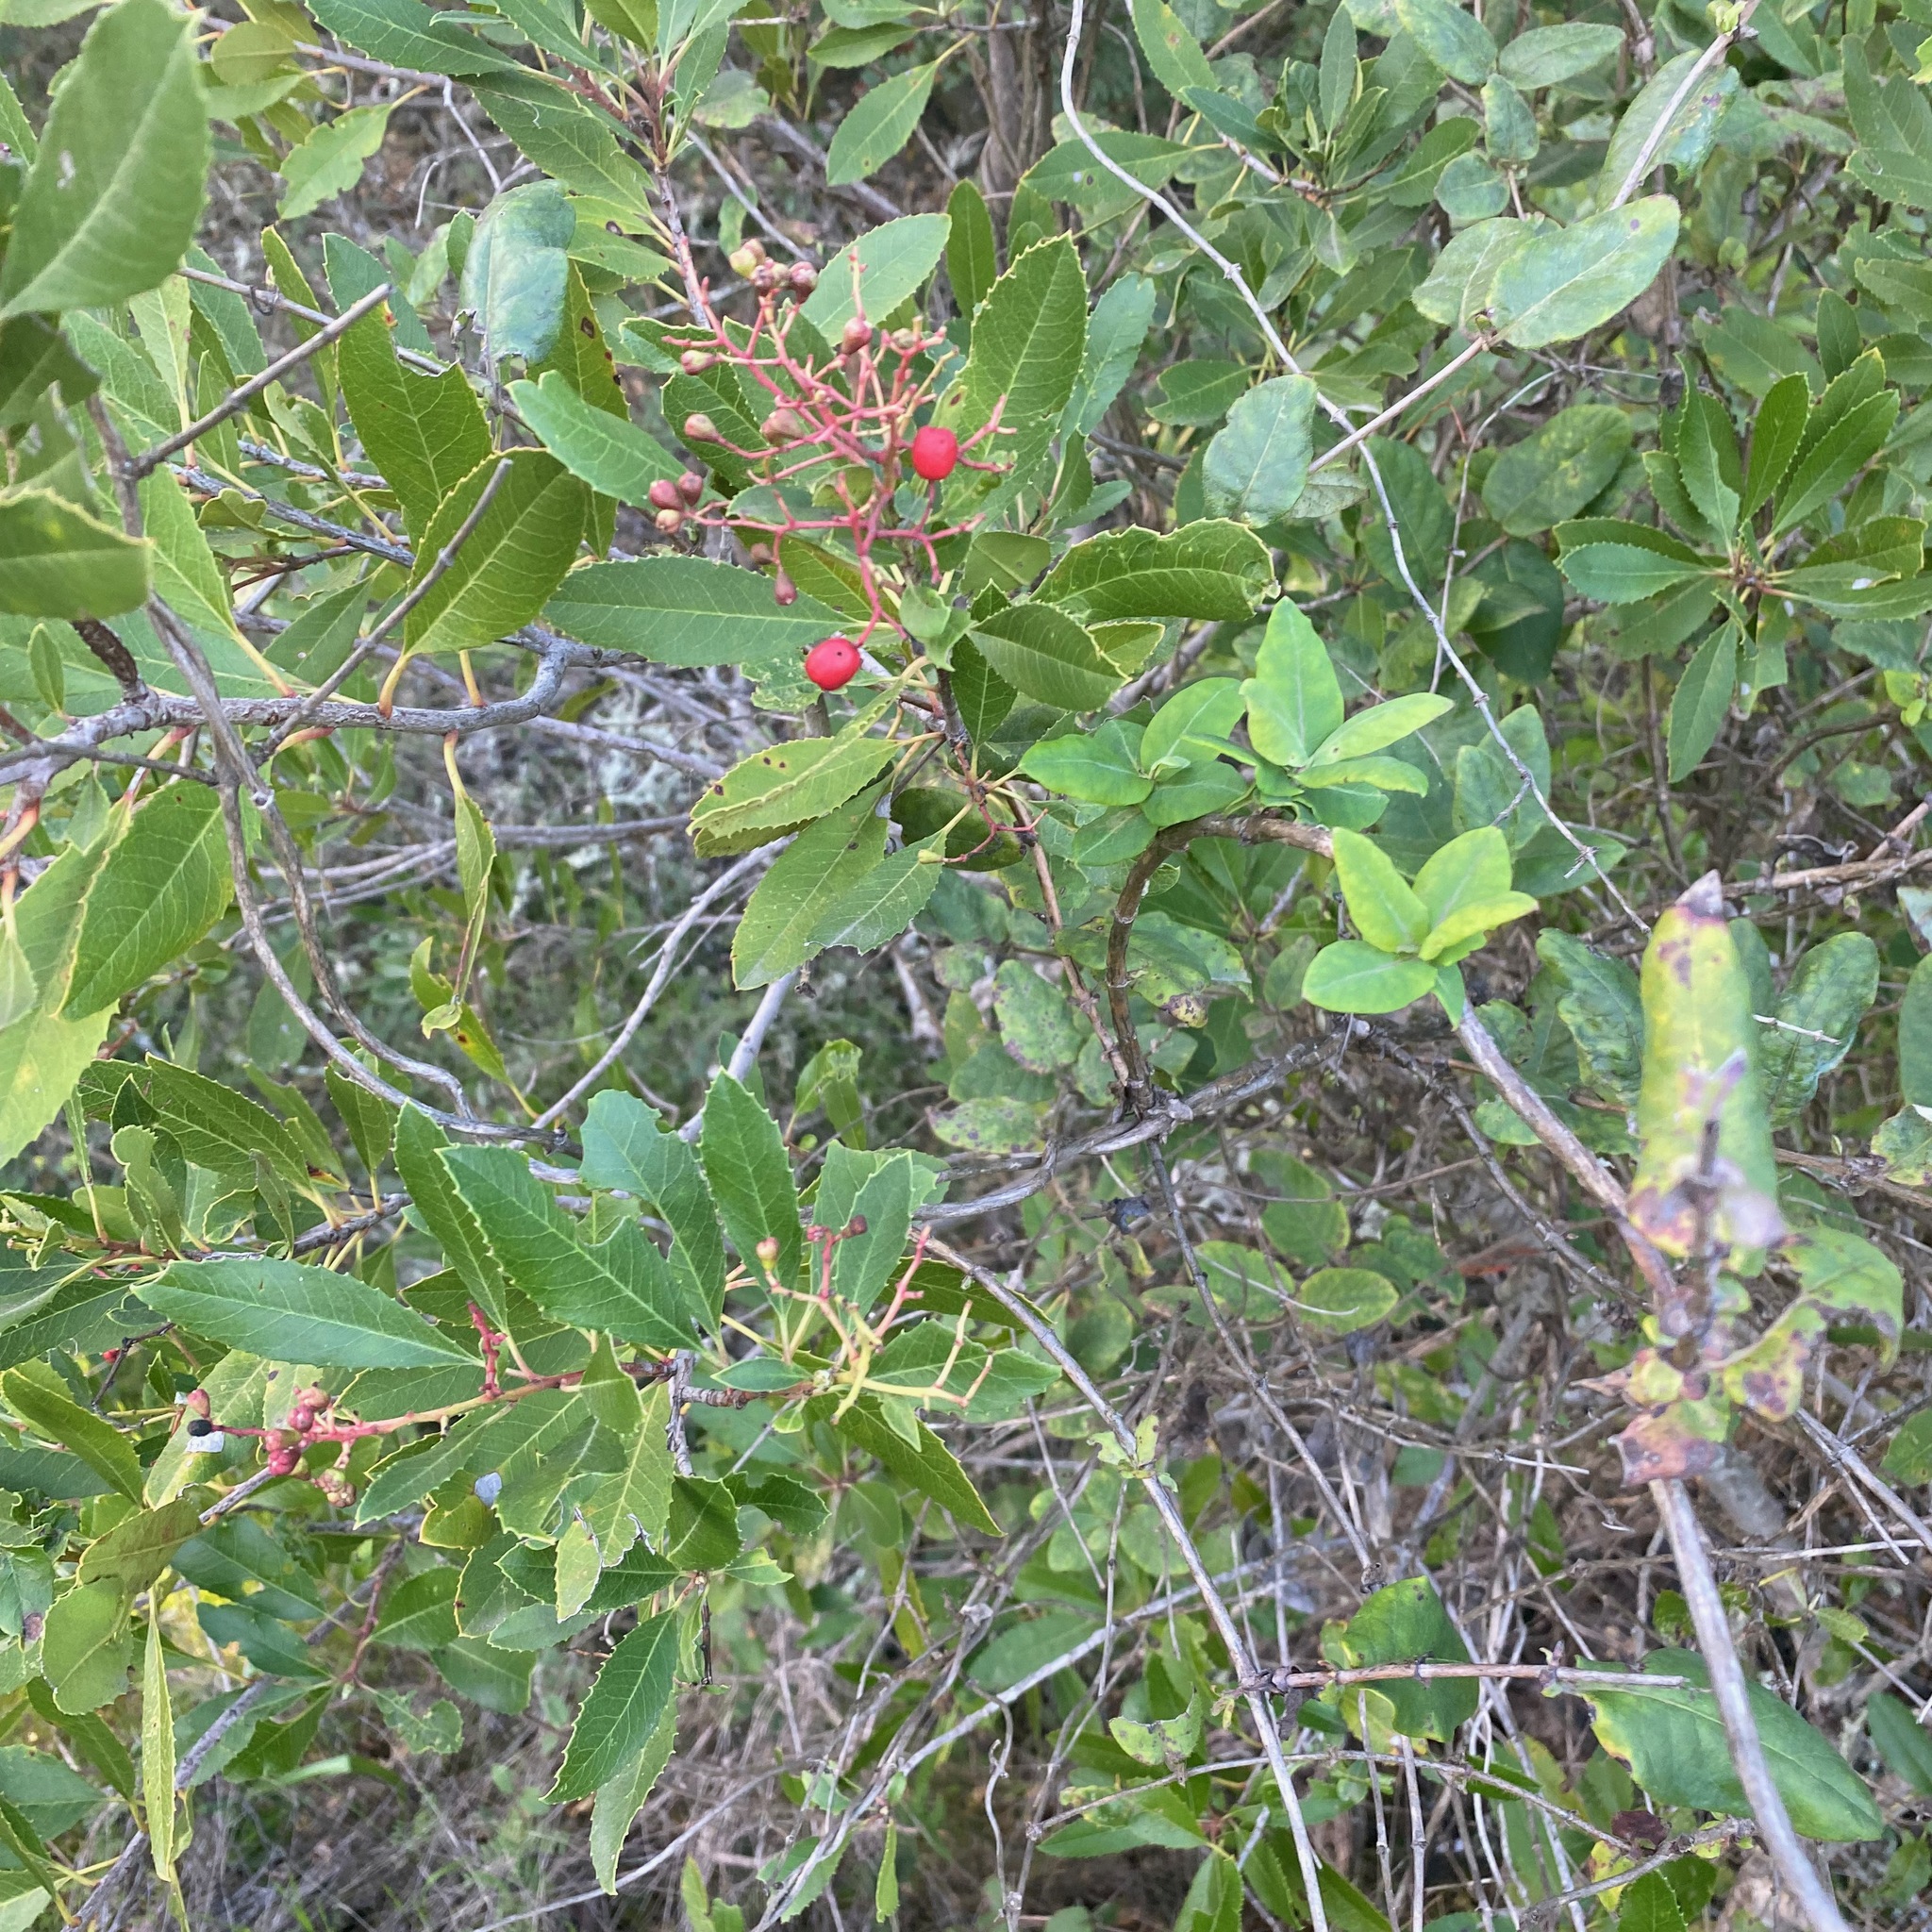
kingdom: Plantae
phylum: Tracheophyta
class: Magnoliopsida
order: Rosales
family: Rosaceae
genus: Heteromeles
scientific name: Heteromeles arbutifolia
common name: California-holly
